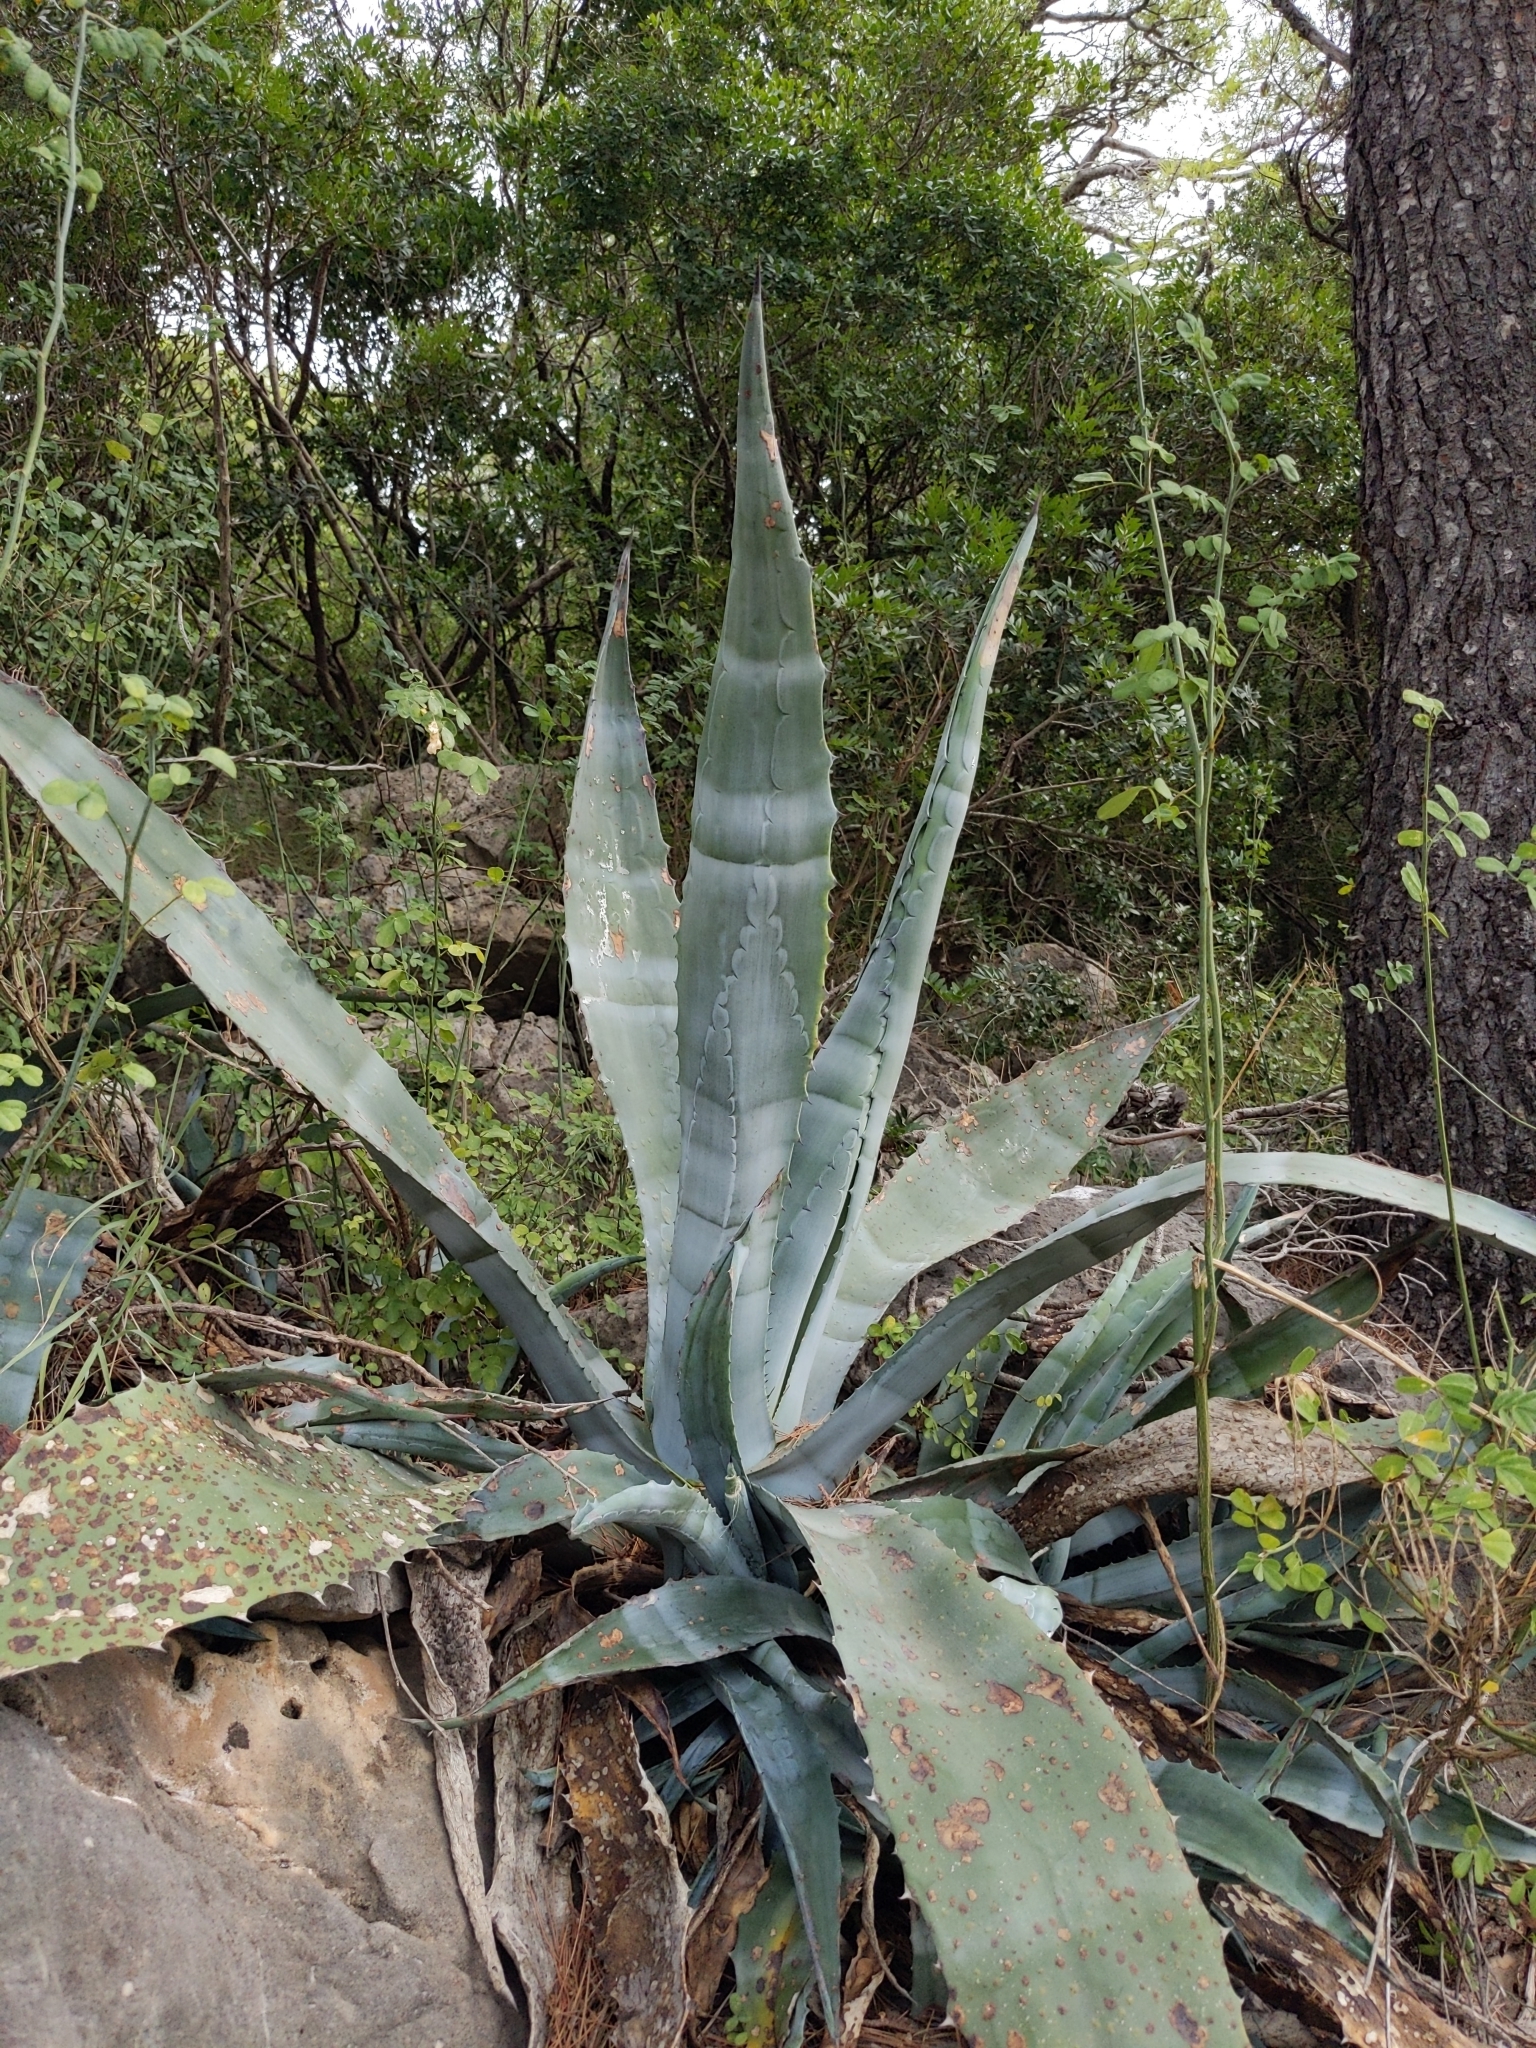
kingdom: Plantae
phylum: Tracheophyta
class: Liliopsida
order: Asparagales
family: Asparagaceae
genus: Agave
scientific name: Agave americana
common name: Centuryplant
